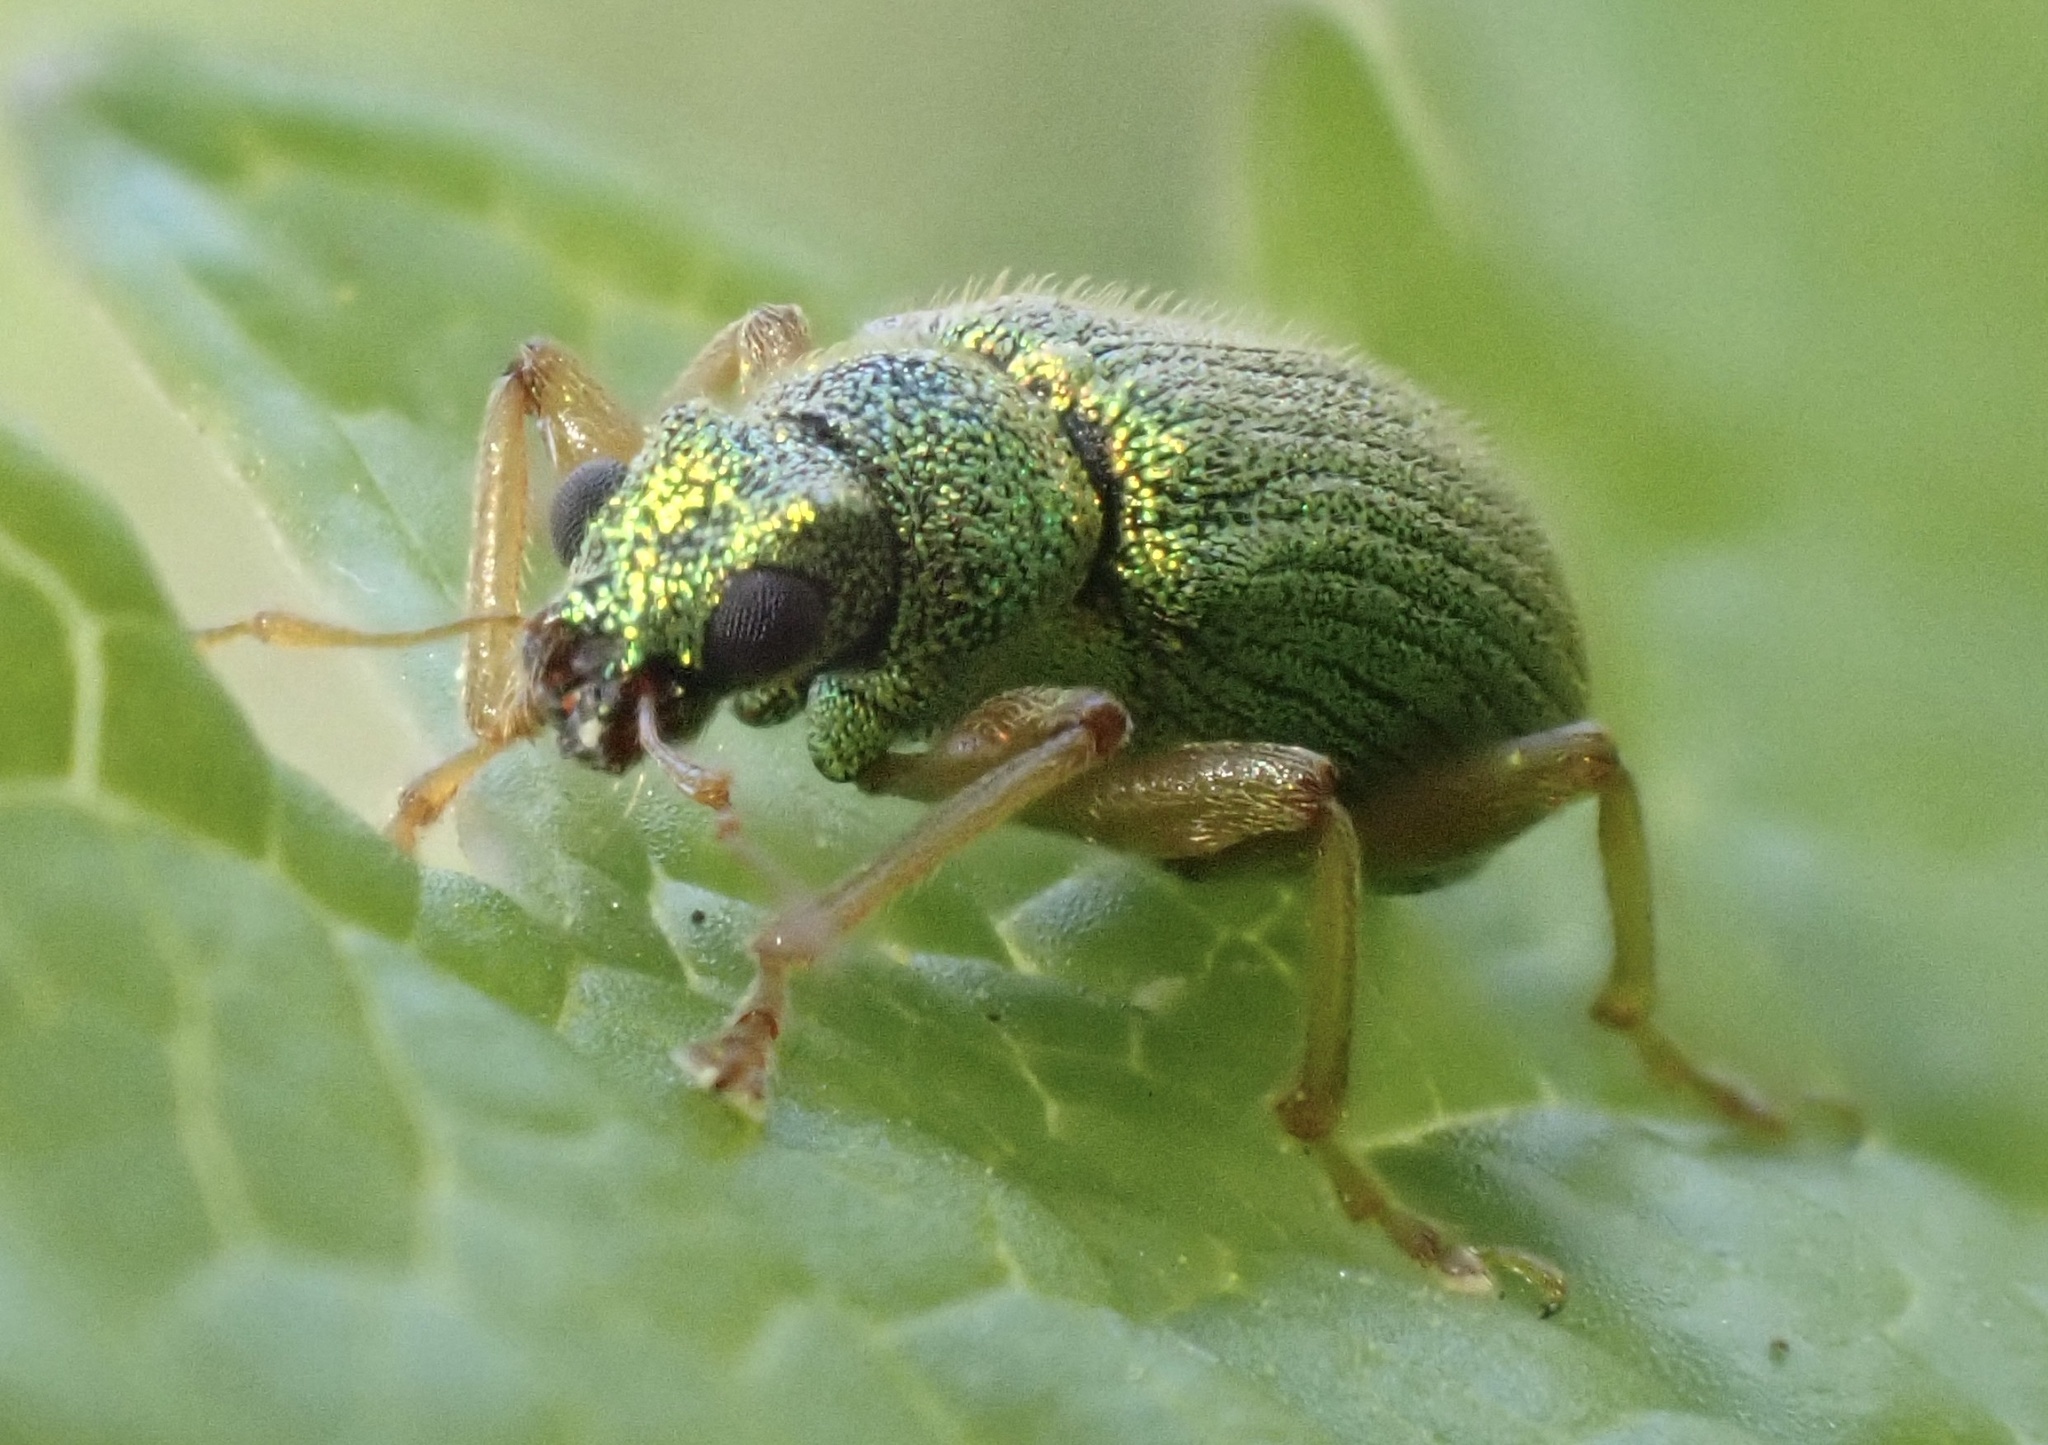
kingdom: Animalia
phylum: Arthropoda
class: Insecta
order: Coleoptera
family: Curculionidae
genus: Polydrusus
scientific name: Polydrusus pterygomalis
